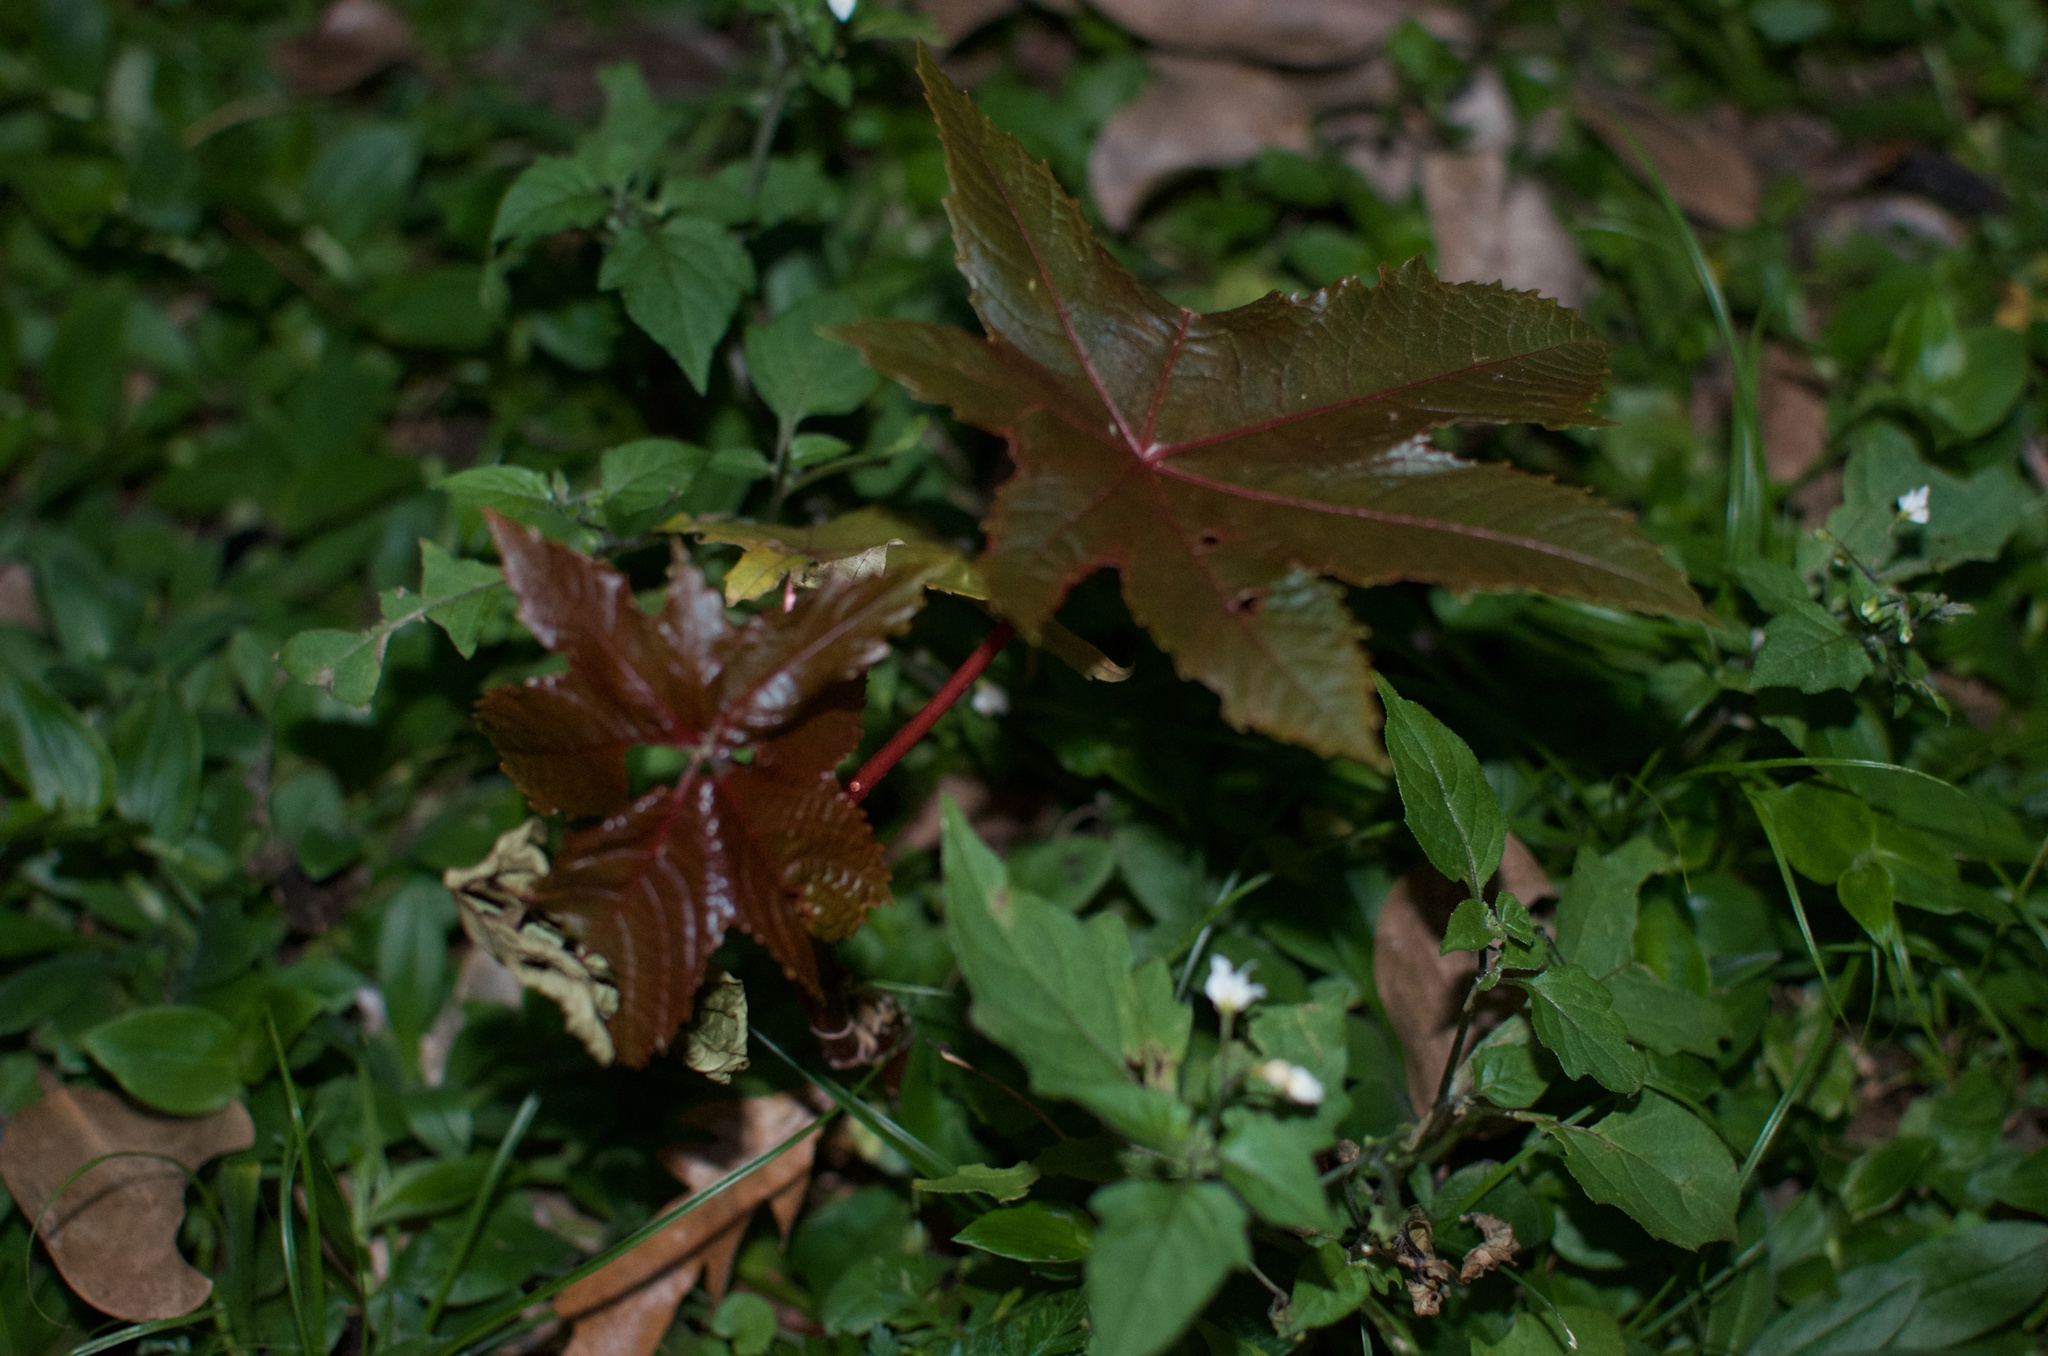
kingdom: Plantae
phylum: Tracheophyta
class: Magnoliopsida
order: Malpighiales
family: Euphorbiaceae
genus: Ricinus
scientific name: Ricinus communis
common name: Castor-oil-plant
